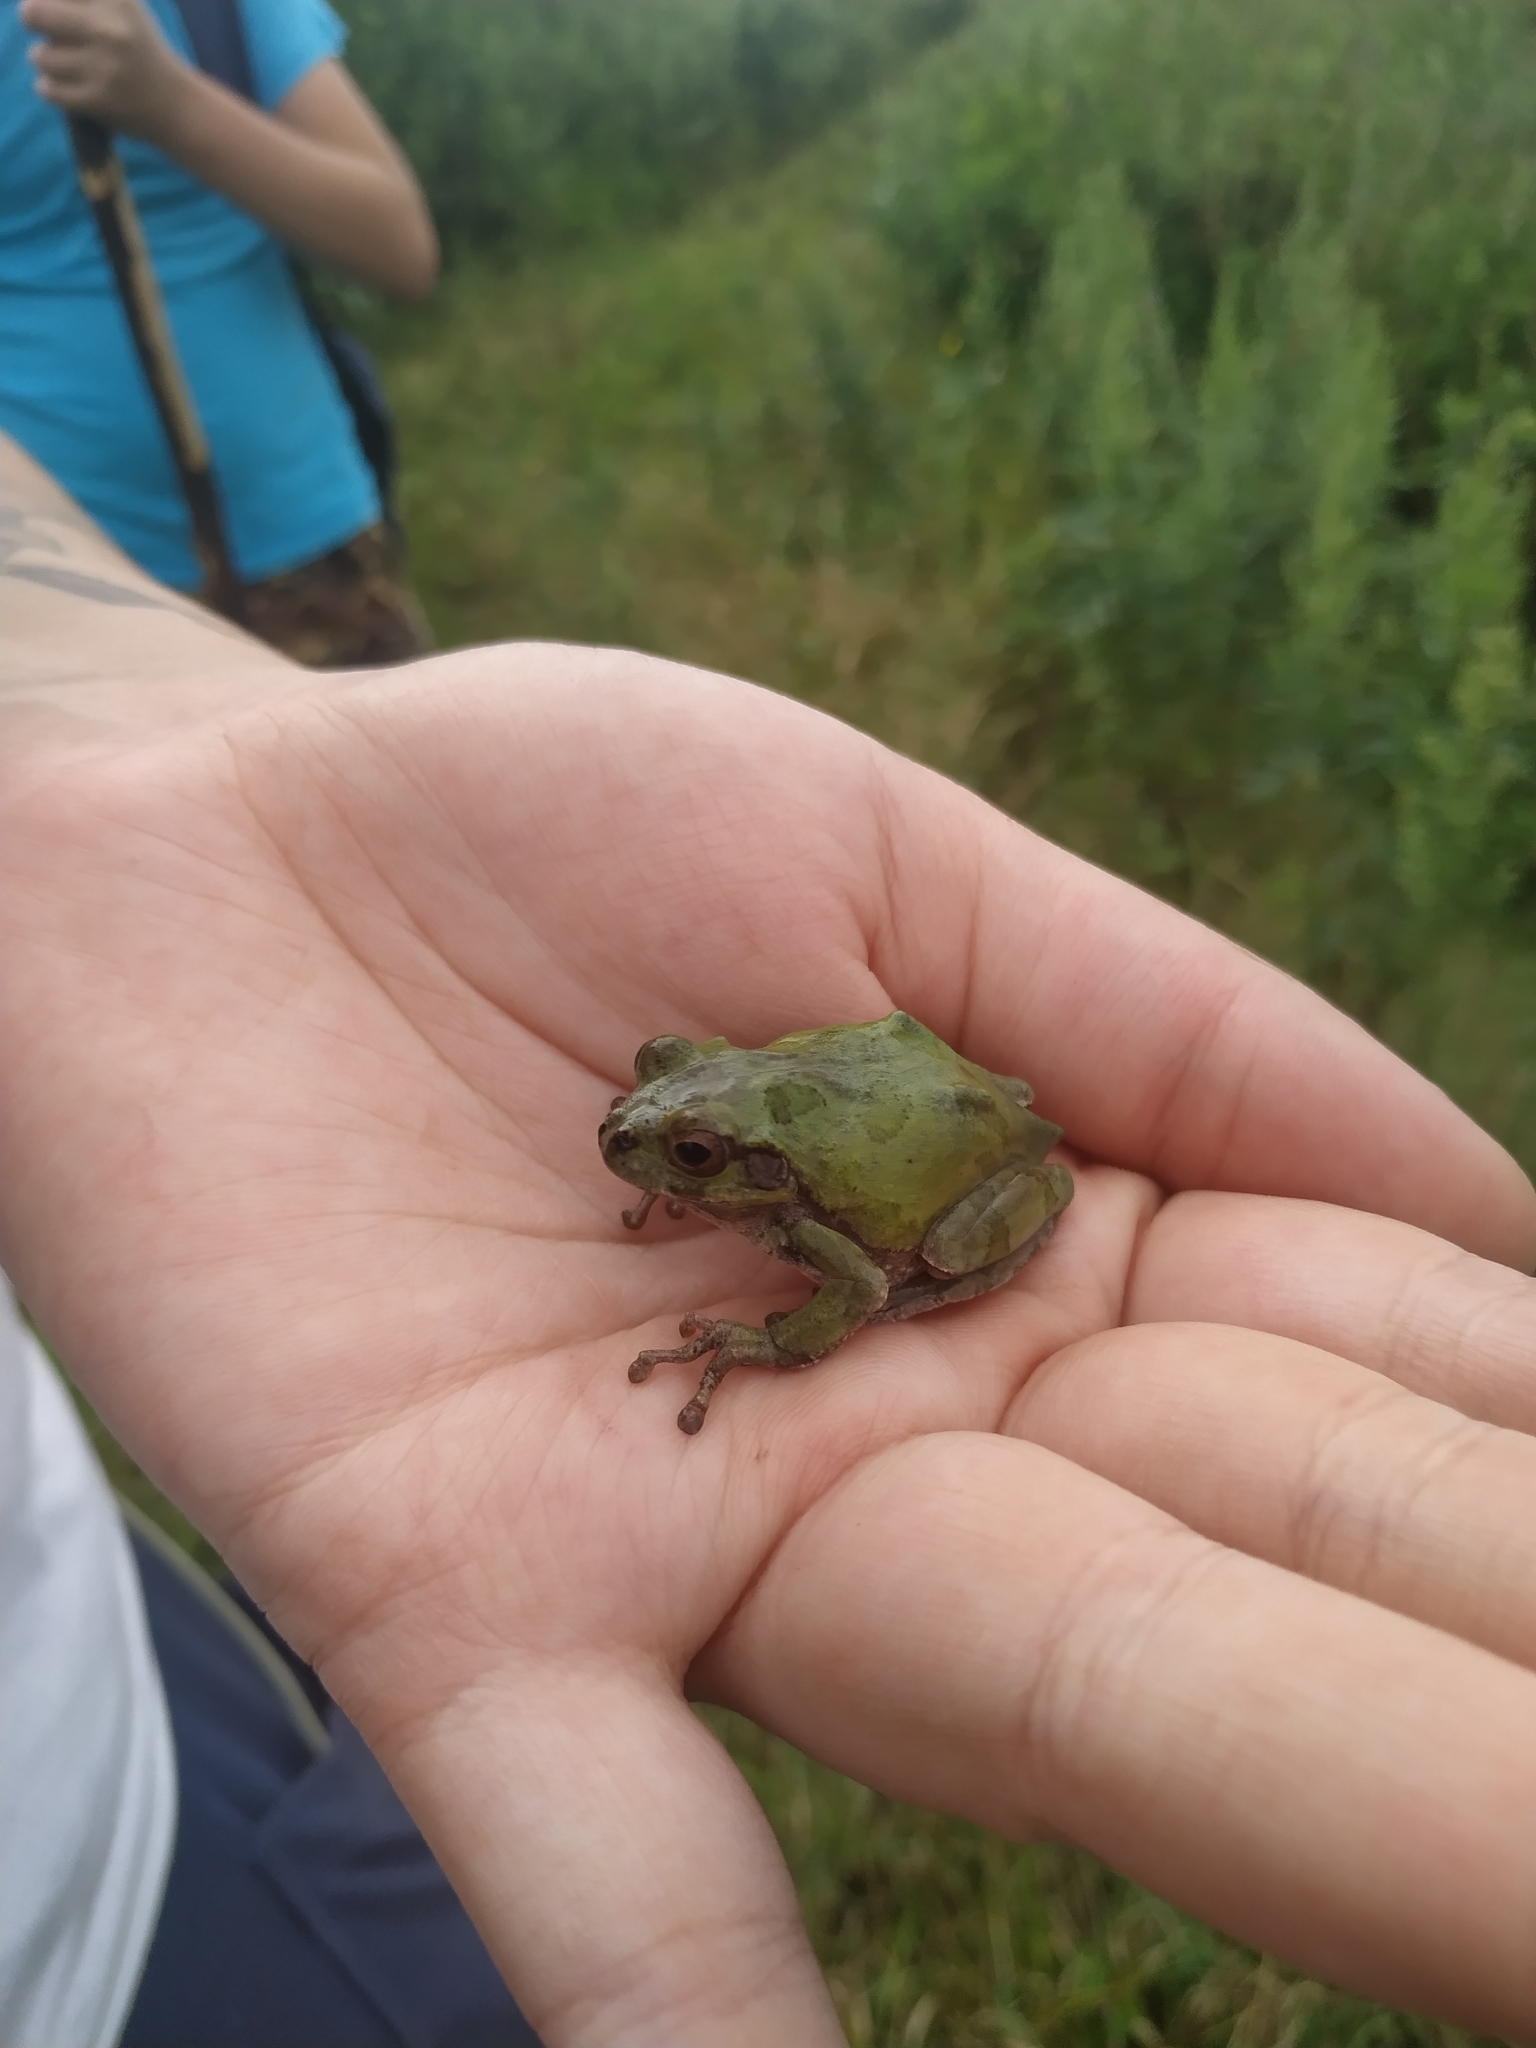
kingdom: Animalia
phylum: Chordata
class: Amphibia
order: Anura
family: Hylidae
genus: Dryophytes
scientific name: Dryophytes japonicus
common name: Japanese treefrog
